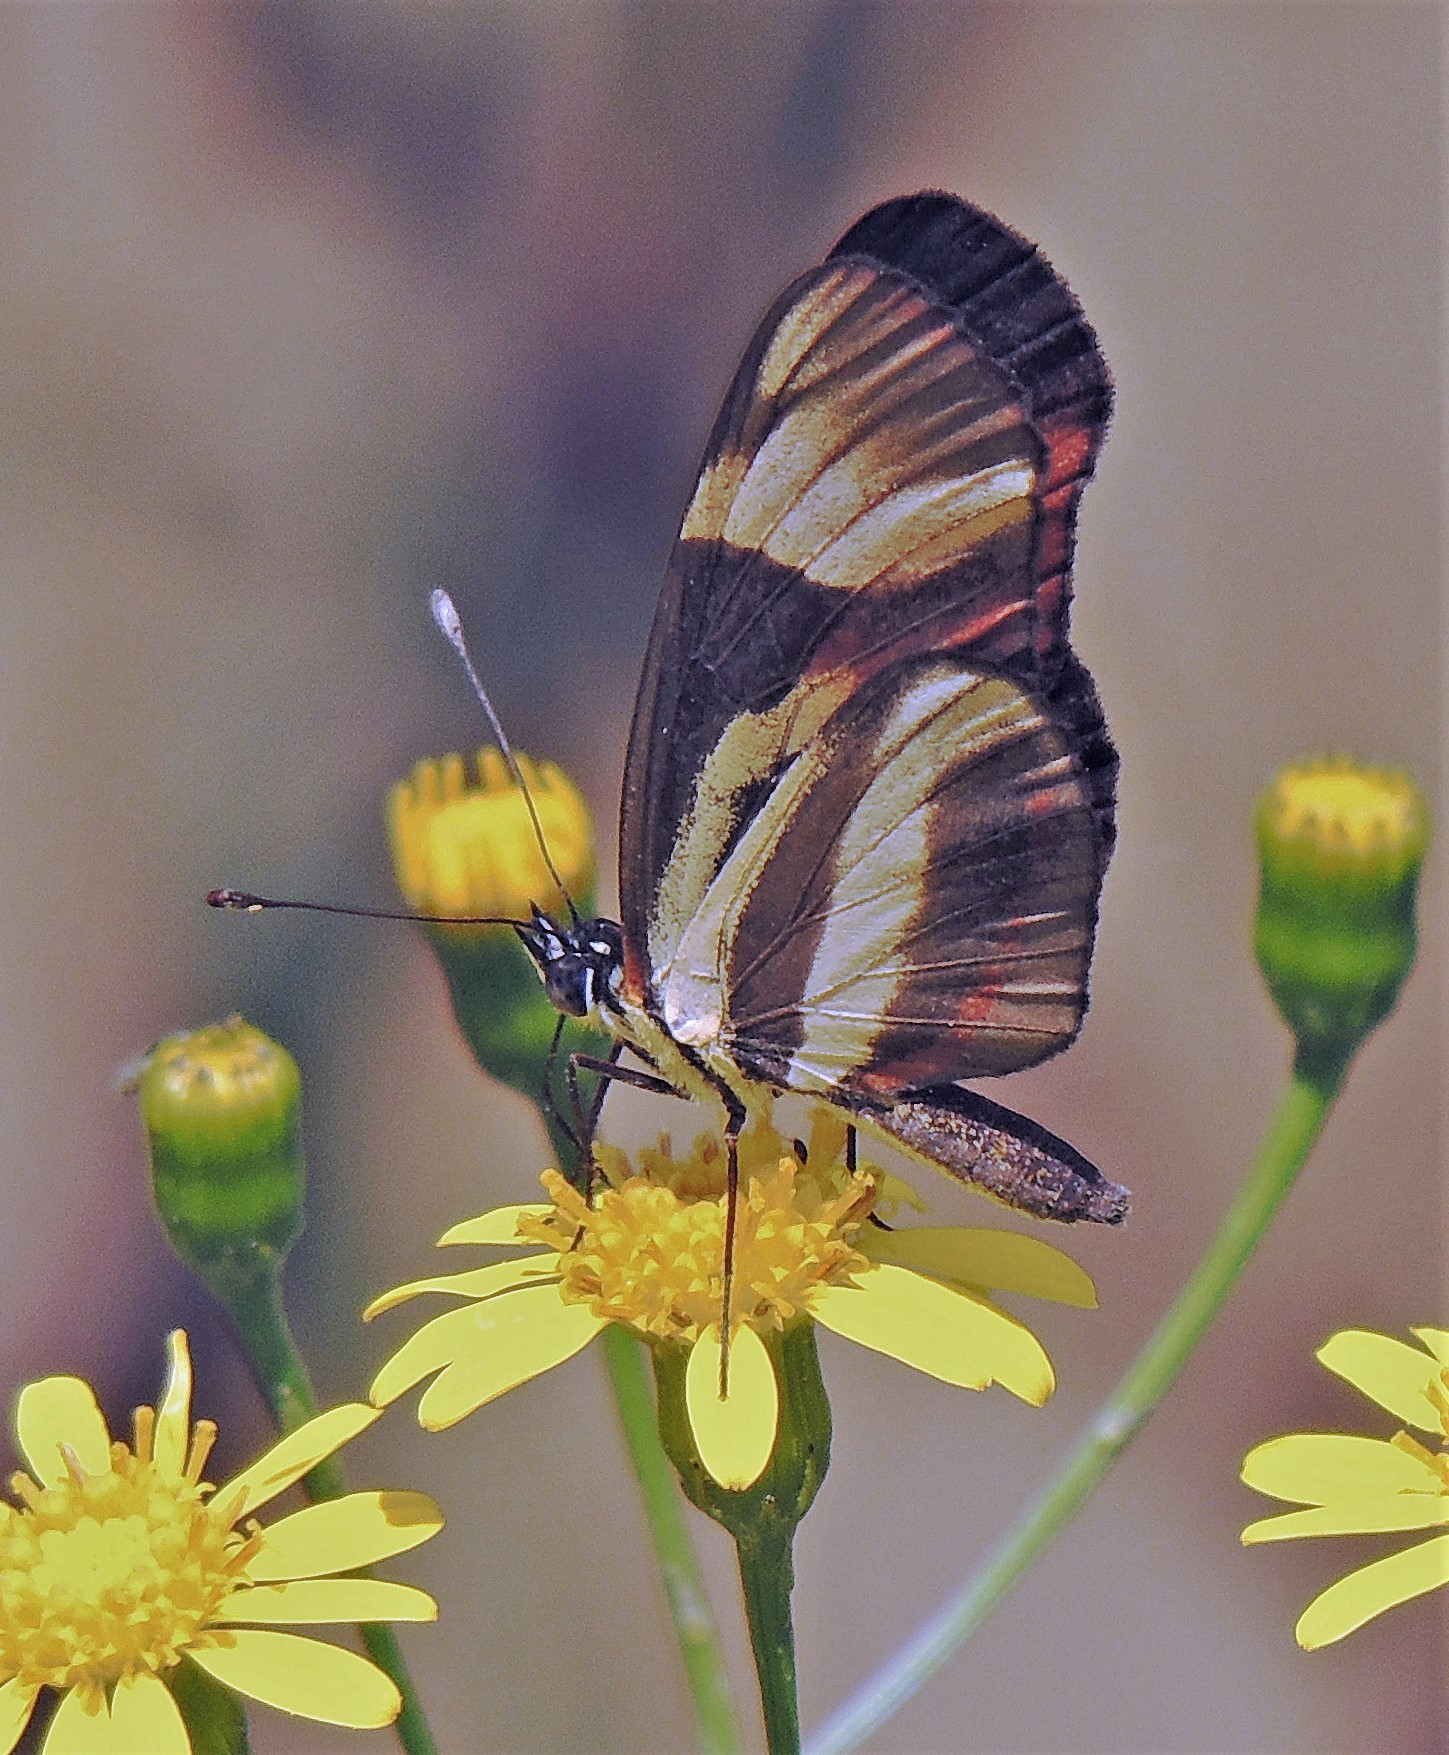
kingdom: Animalia
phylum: Arthropoda
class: Insecta
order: Lepidoptera
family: Nymphalidae
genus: Eresia
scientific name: Eresia lansdorfi
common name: Lansdorf's crescent
